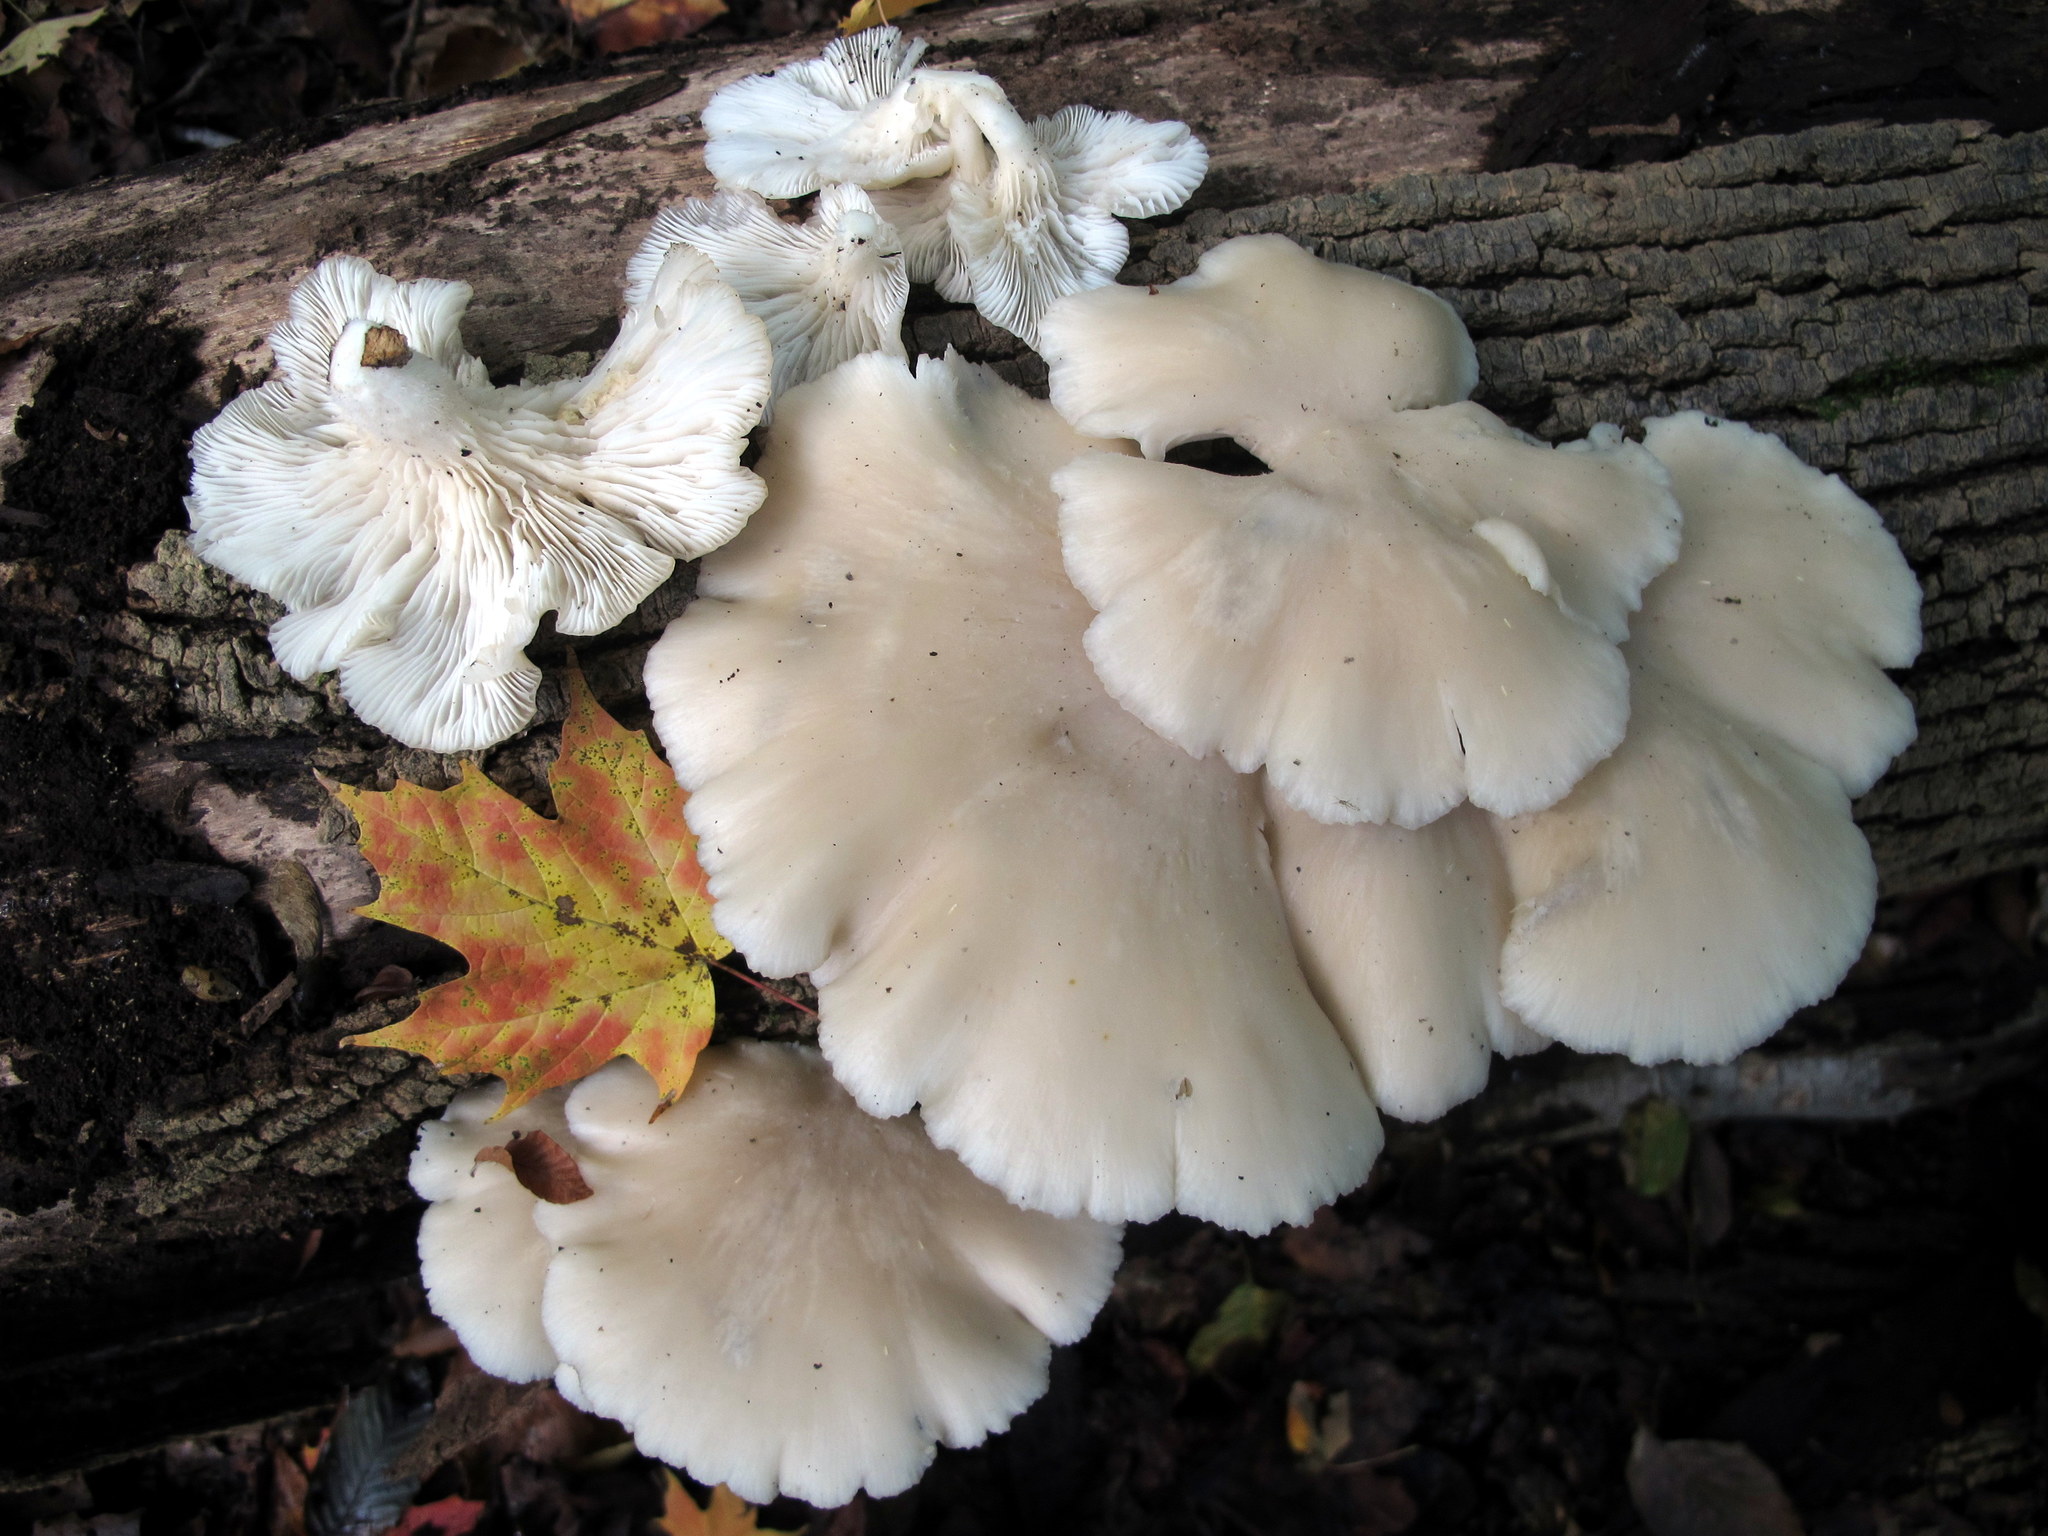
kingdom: Fungi
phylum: Basidiomycota
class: Agaricomycetes
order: Agaricales
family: Pleurotaceae
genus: Pleurotus
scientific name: Pleurotus pulmonarius
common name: Pale oyster
